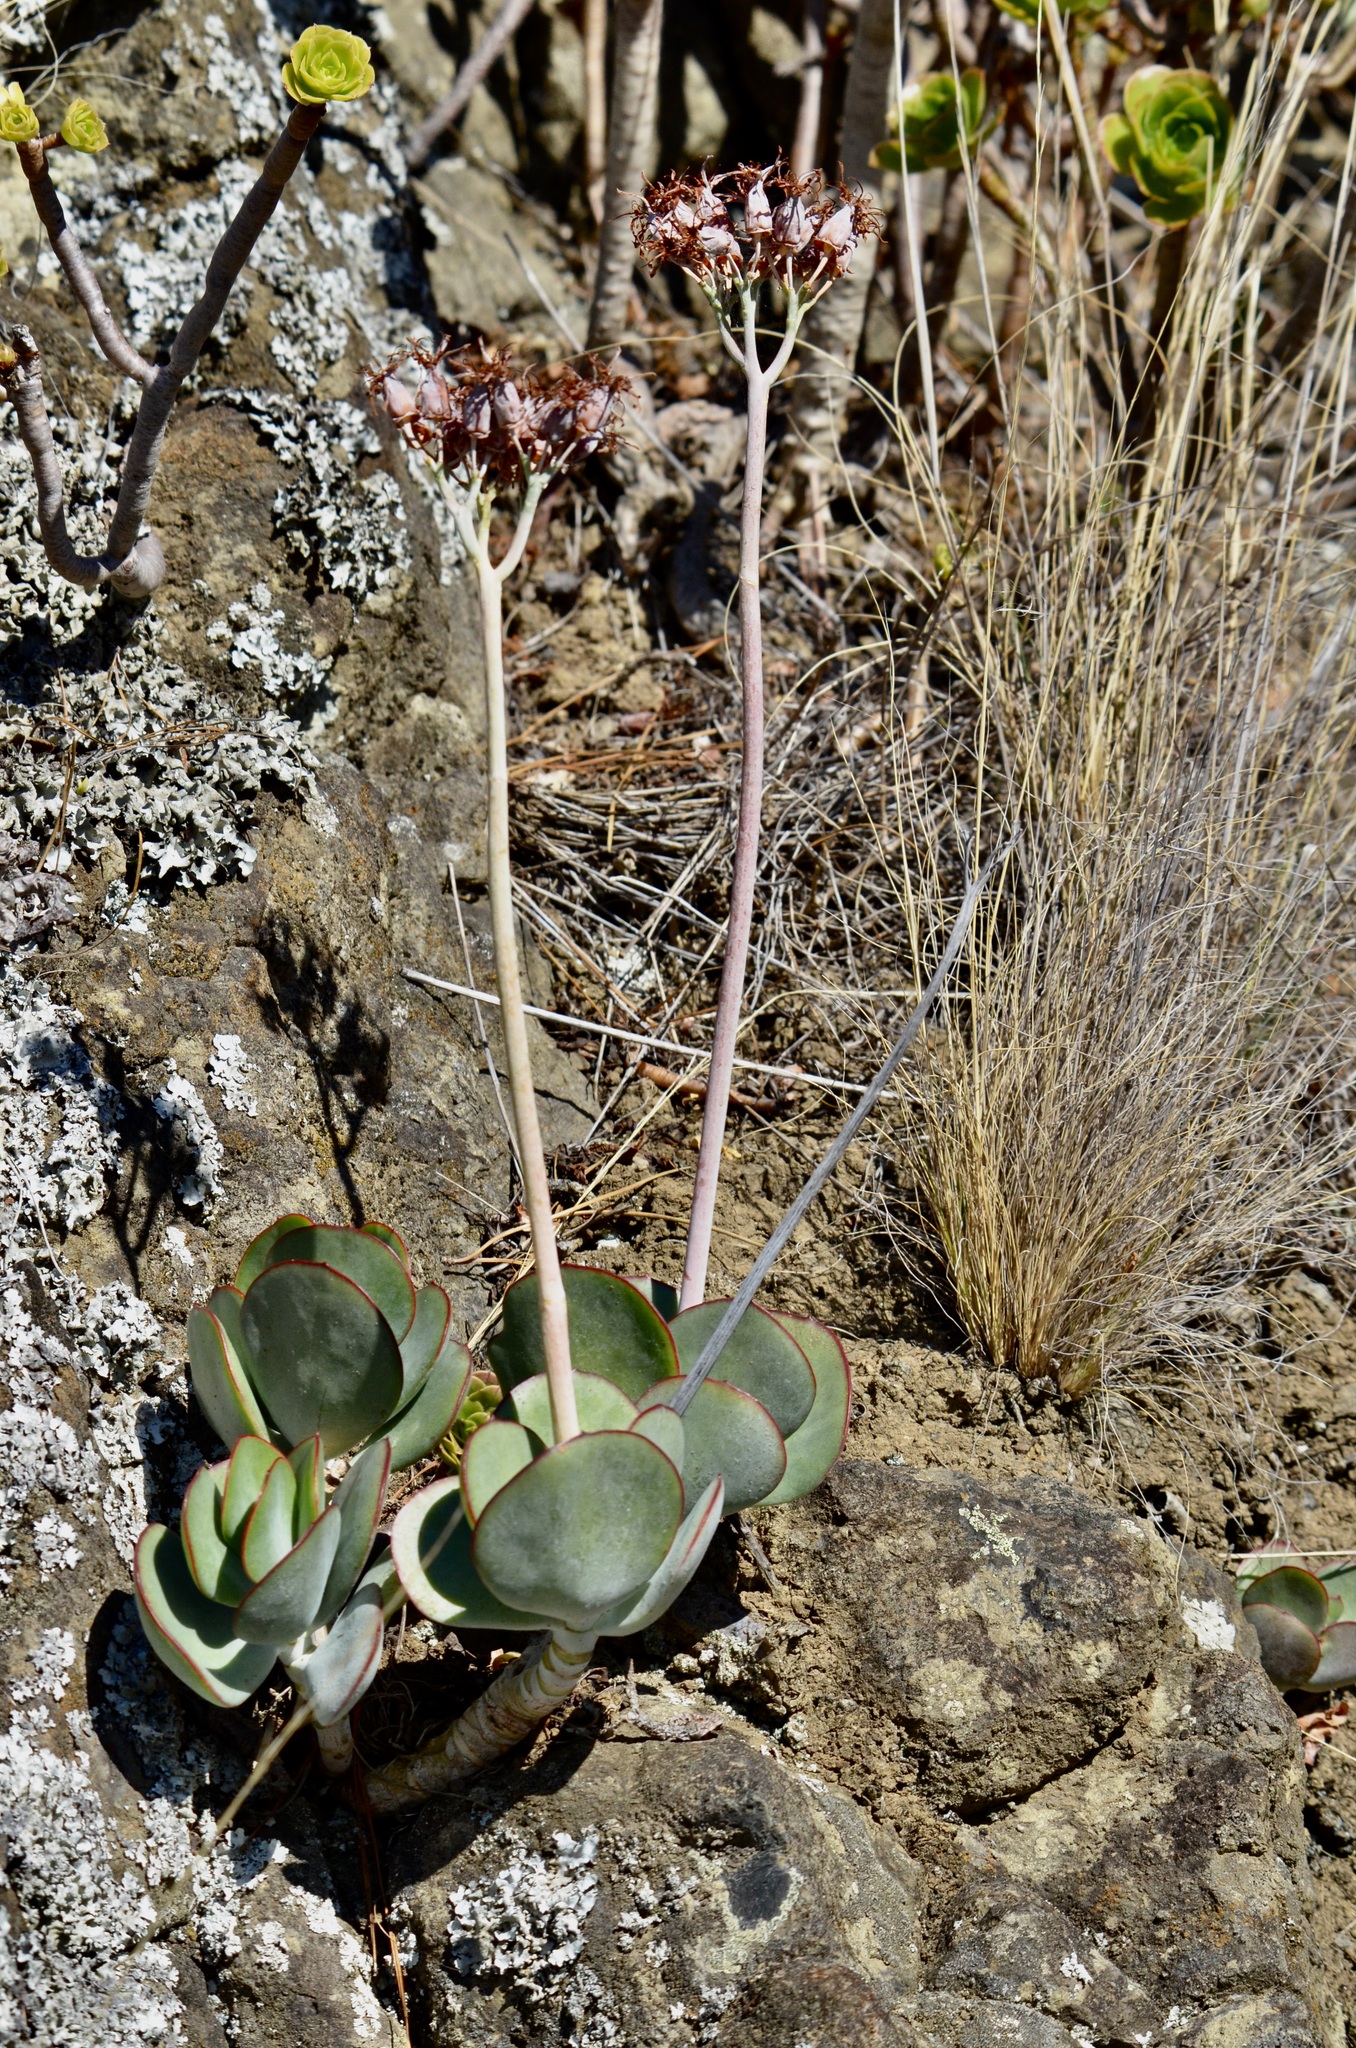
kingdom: Plantae
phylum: Tracheophyta
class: Magnoliopsida
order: Saxifragales
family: Crassulaceae
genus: Cotyledon
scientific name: Cotyledon orbiculata
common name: Pig's ear
